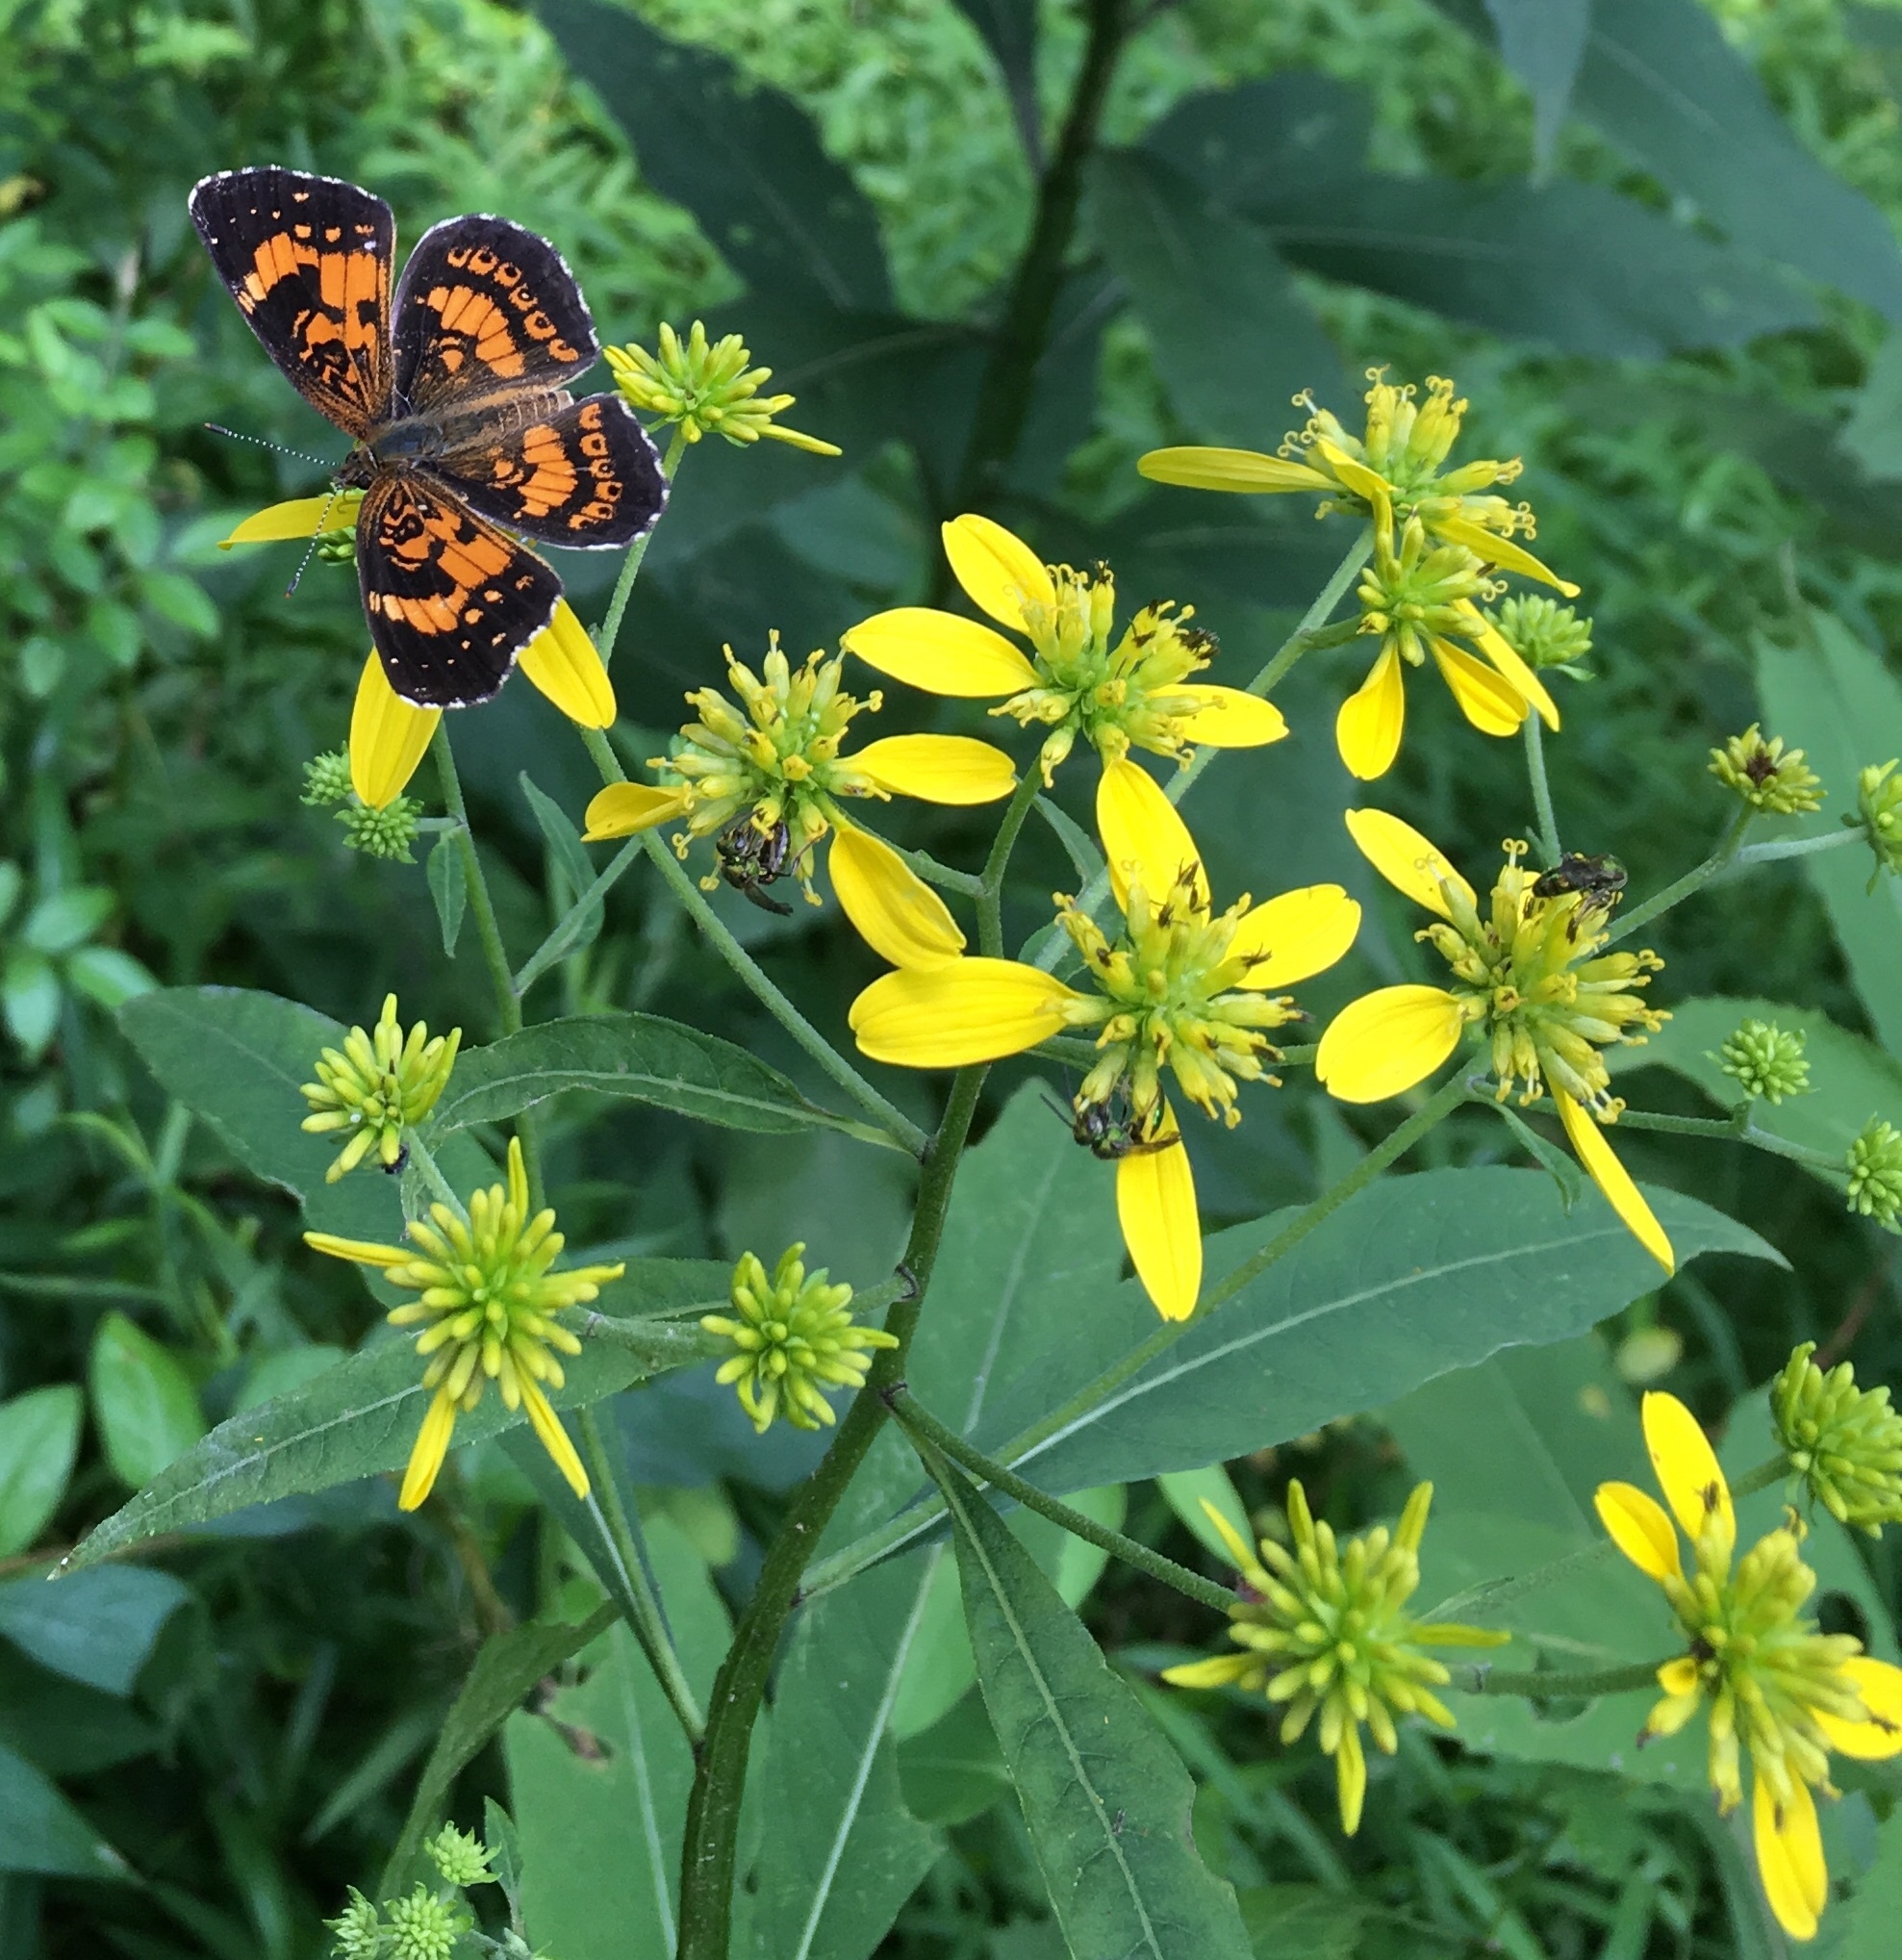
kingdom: Plantae
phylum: Tracheophyta
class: Magnoliopsida
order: Asterales
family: Asteraceae
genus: Verbesina
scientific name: Verbesina alternifolia
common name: Wingstem
